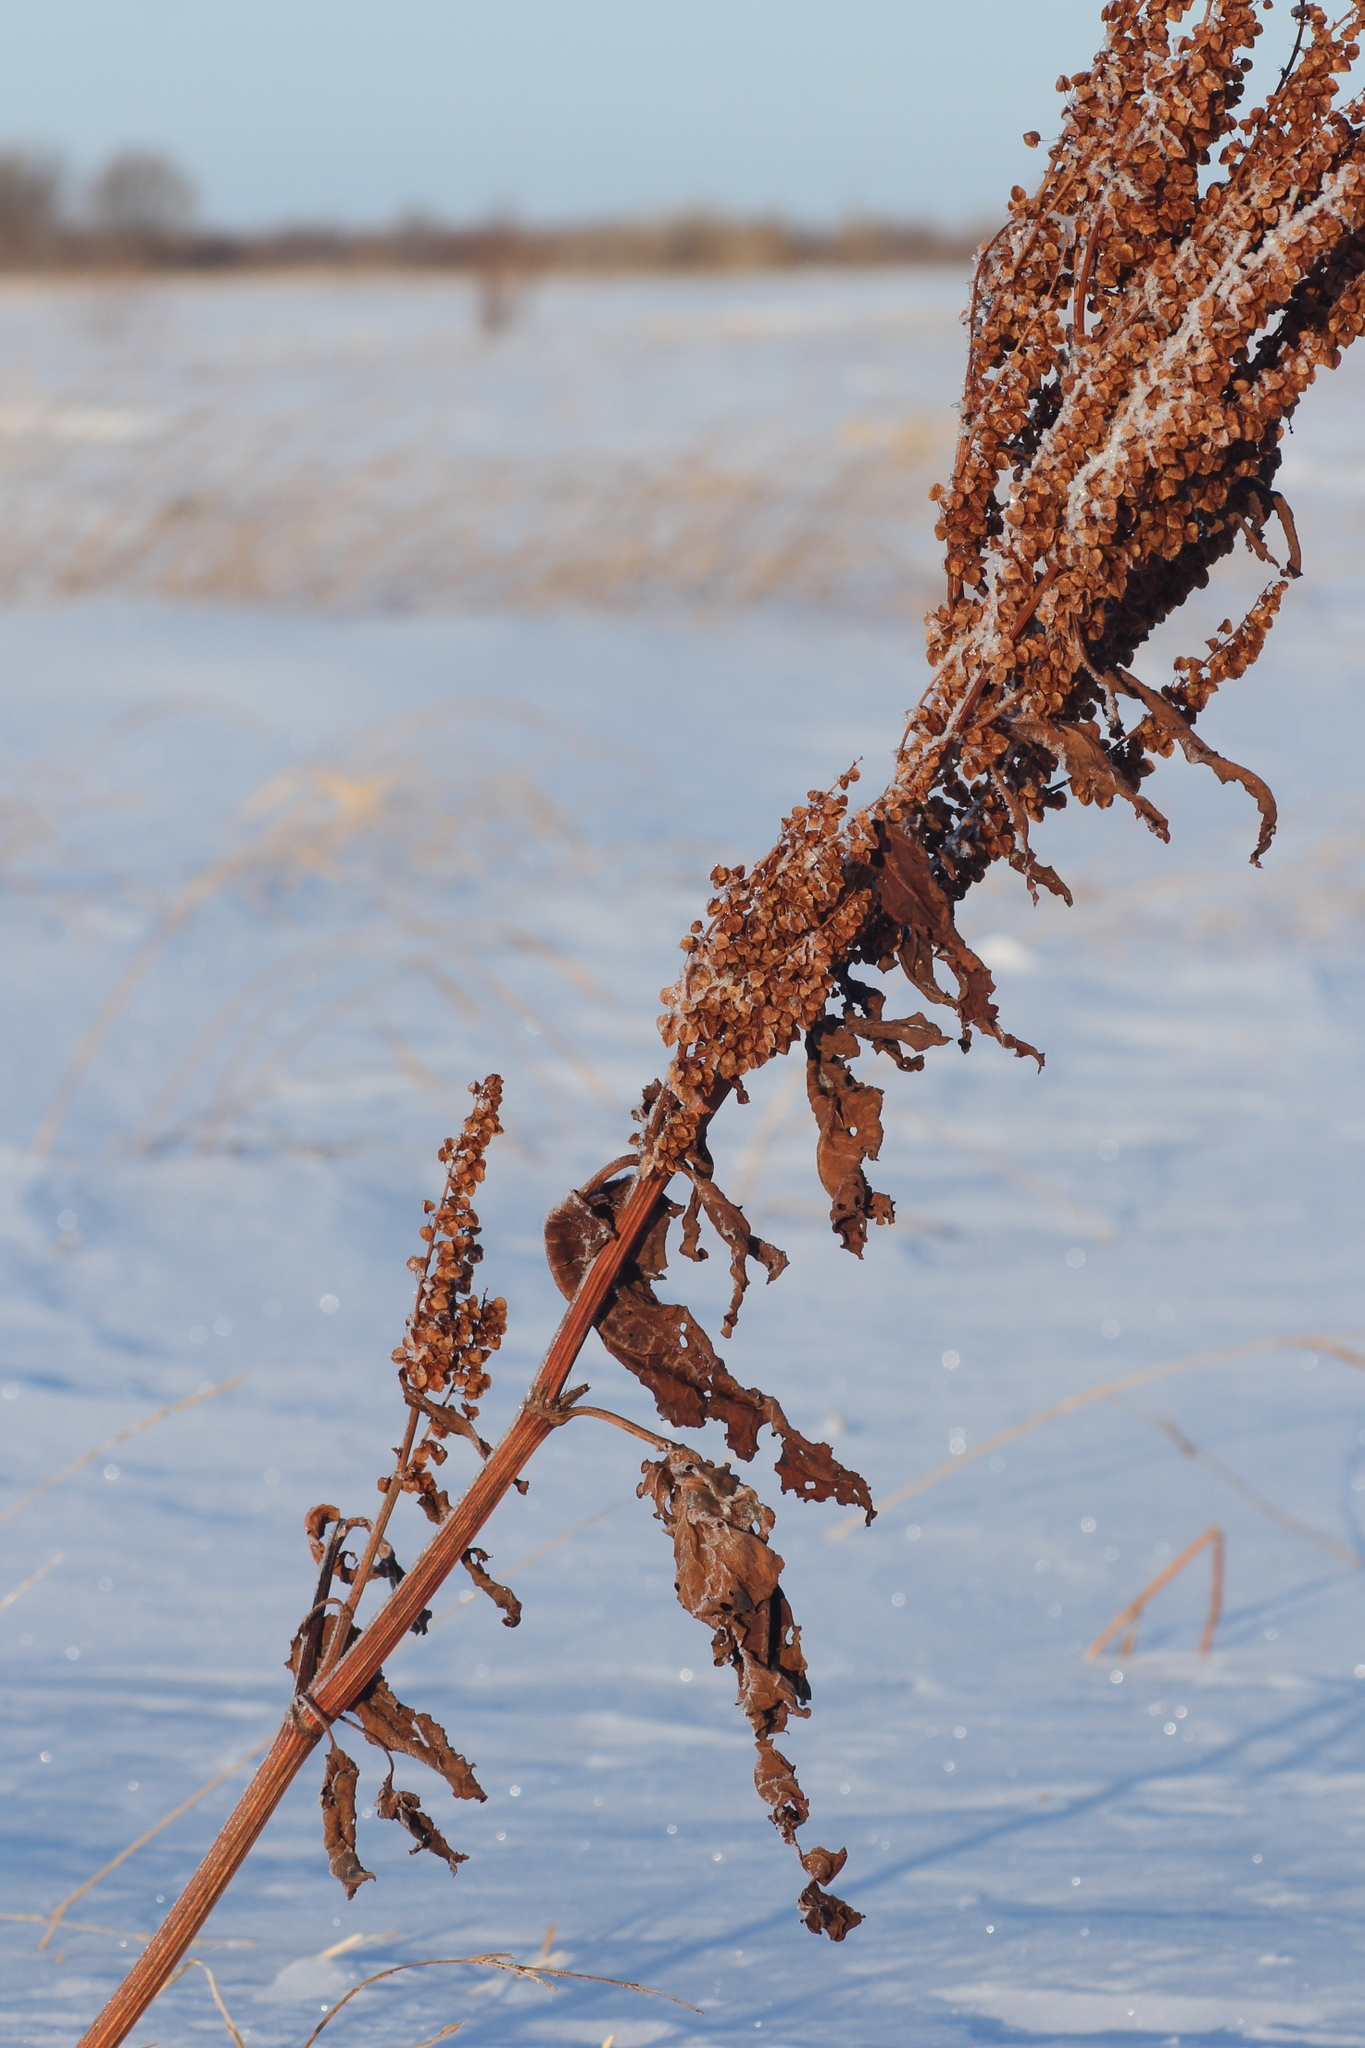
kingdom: Plantae
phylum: Tracheophyta
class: Magnoliopsida
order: Caryophyllales
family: Polygonaceae
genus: Rumex
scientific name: Rumex aquaticus
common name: Scottish dock
